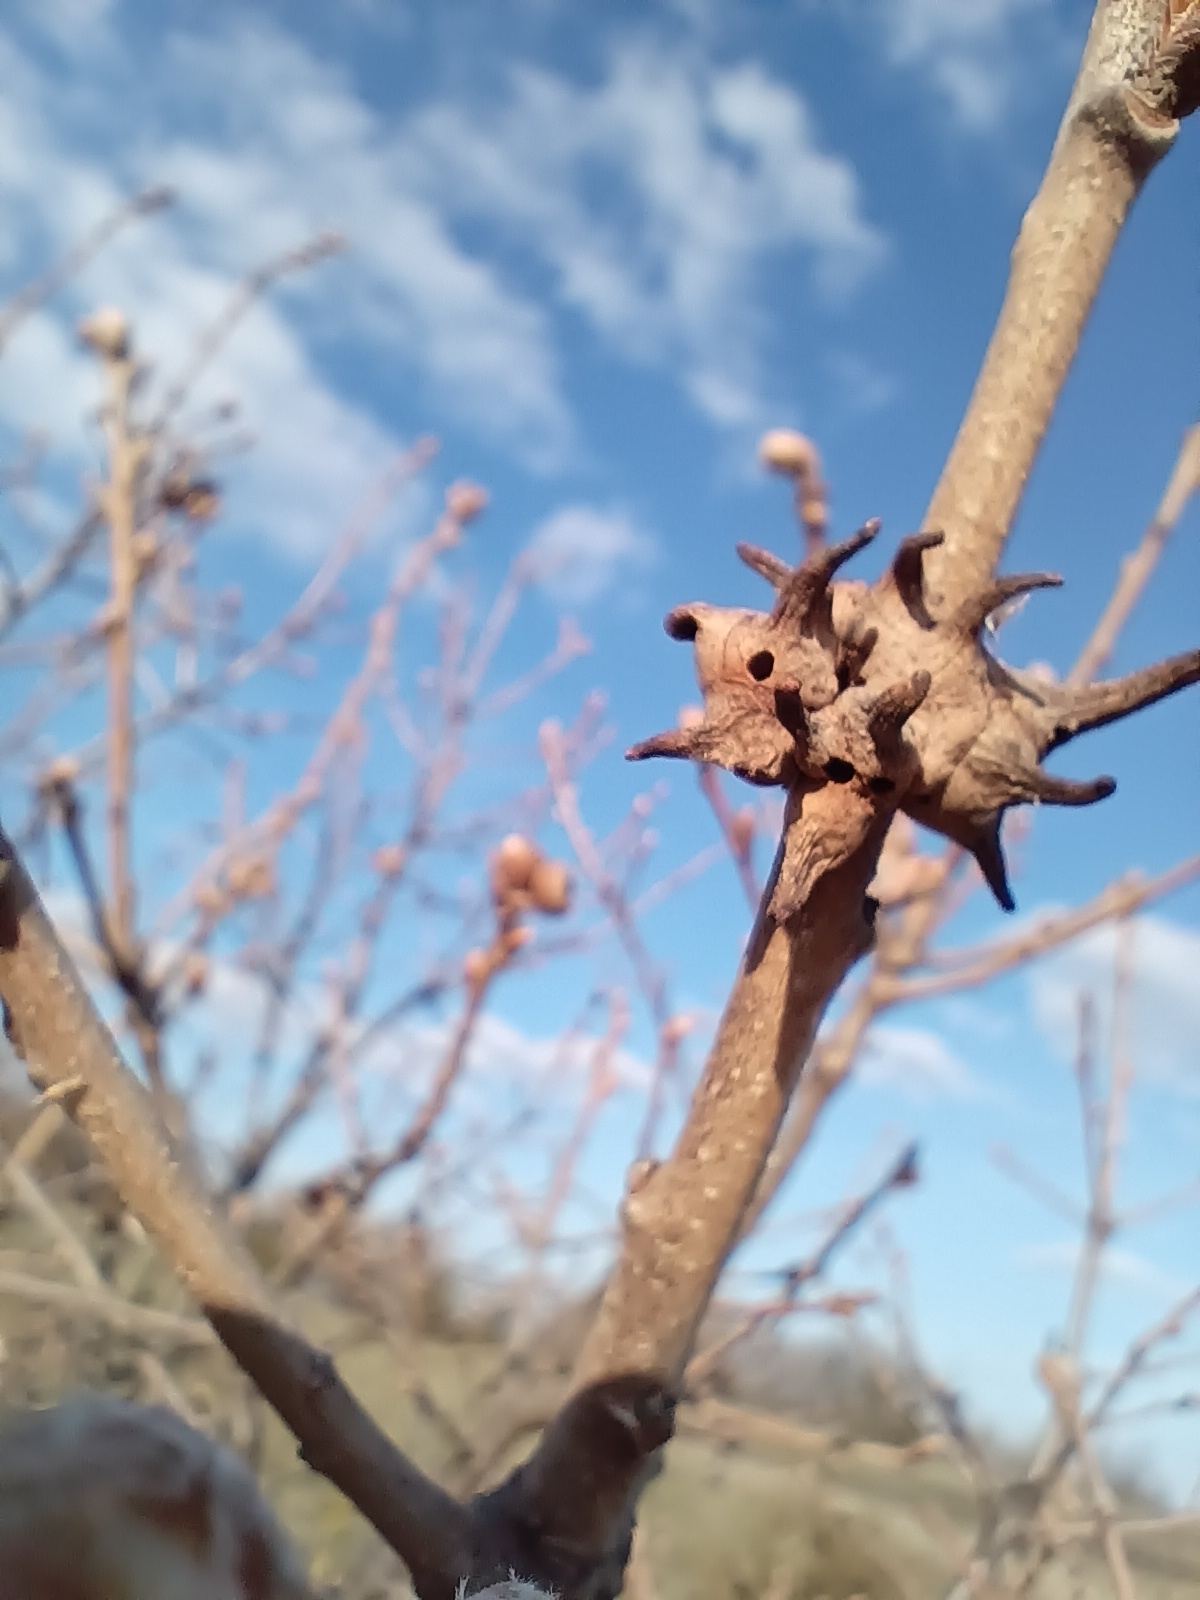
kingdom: Animalia
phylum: Arthropoda
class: Insecta
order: Hymenoptera
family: Cynipidae
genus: Andricus
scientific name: Andricus coriarius
